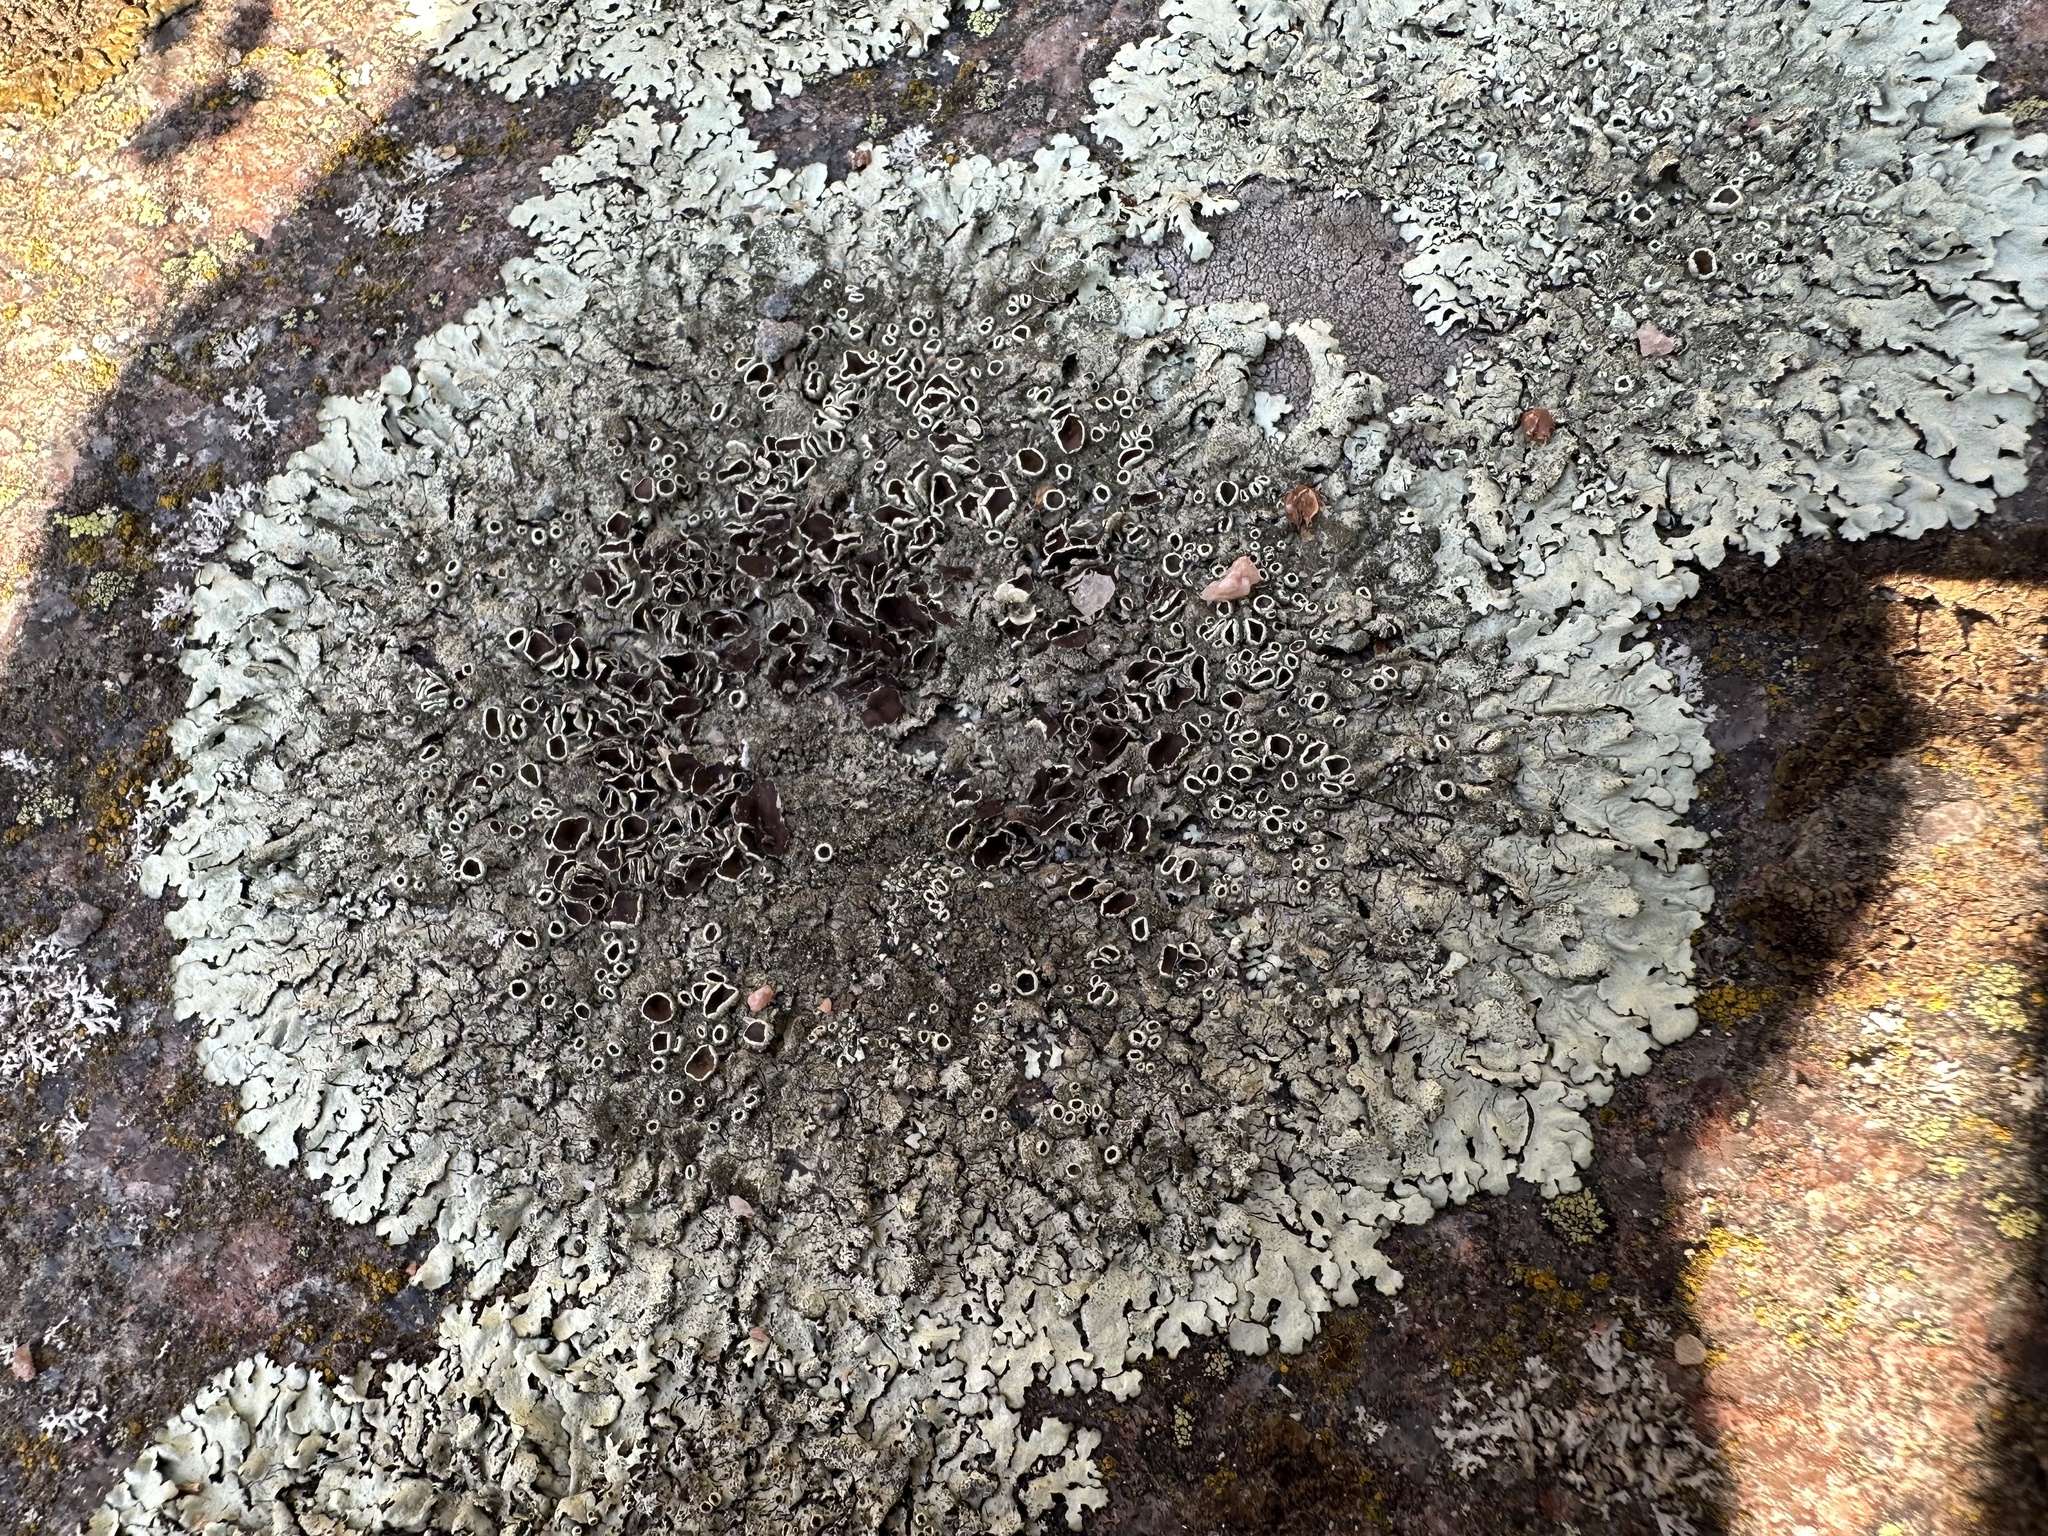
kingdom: Fungi
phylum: Ascomycota
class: Lecanoromycetes
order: Lecanorales
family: Parmeliaceae
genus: Xanthoparmelia
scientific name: Xanthoparmelia conspersa
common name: Peppered rock shield
